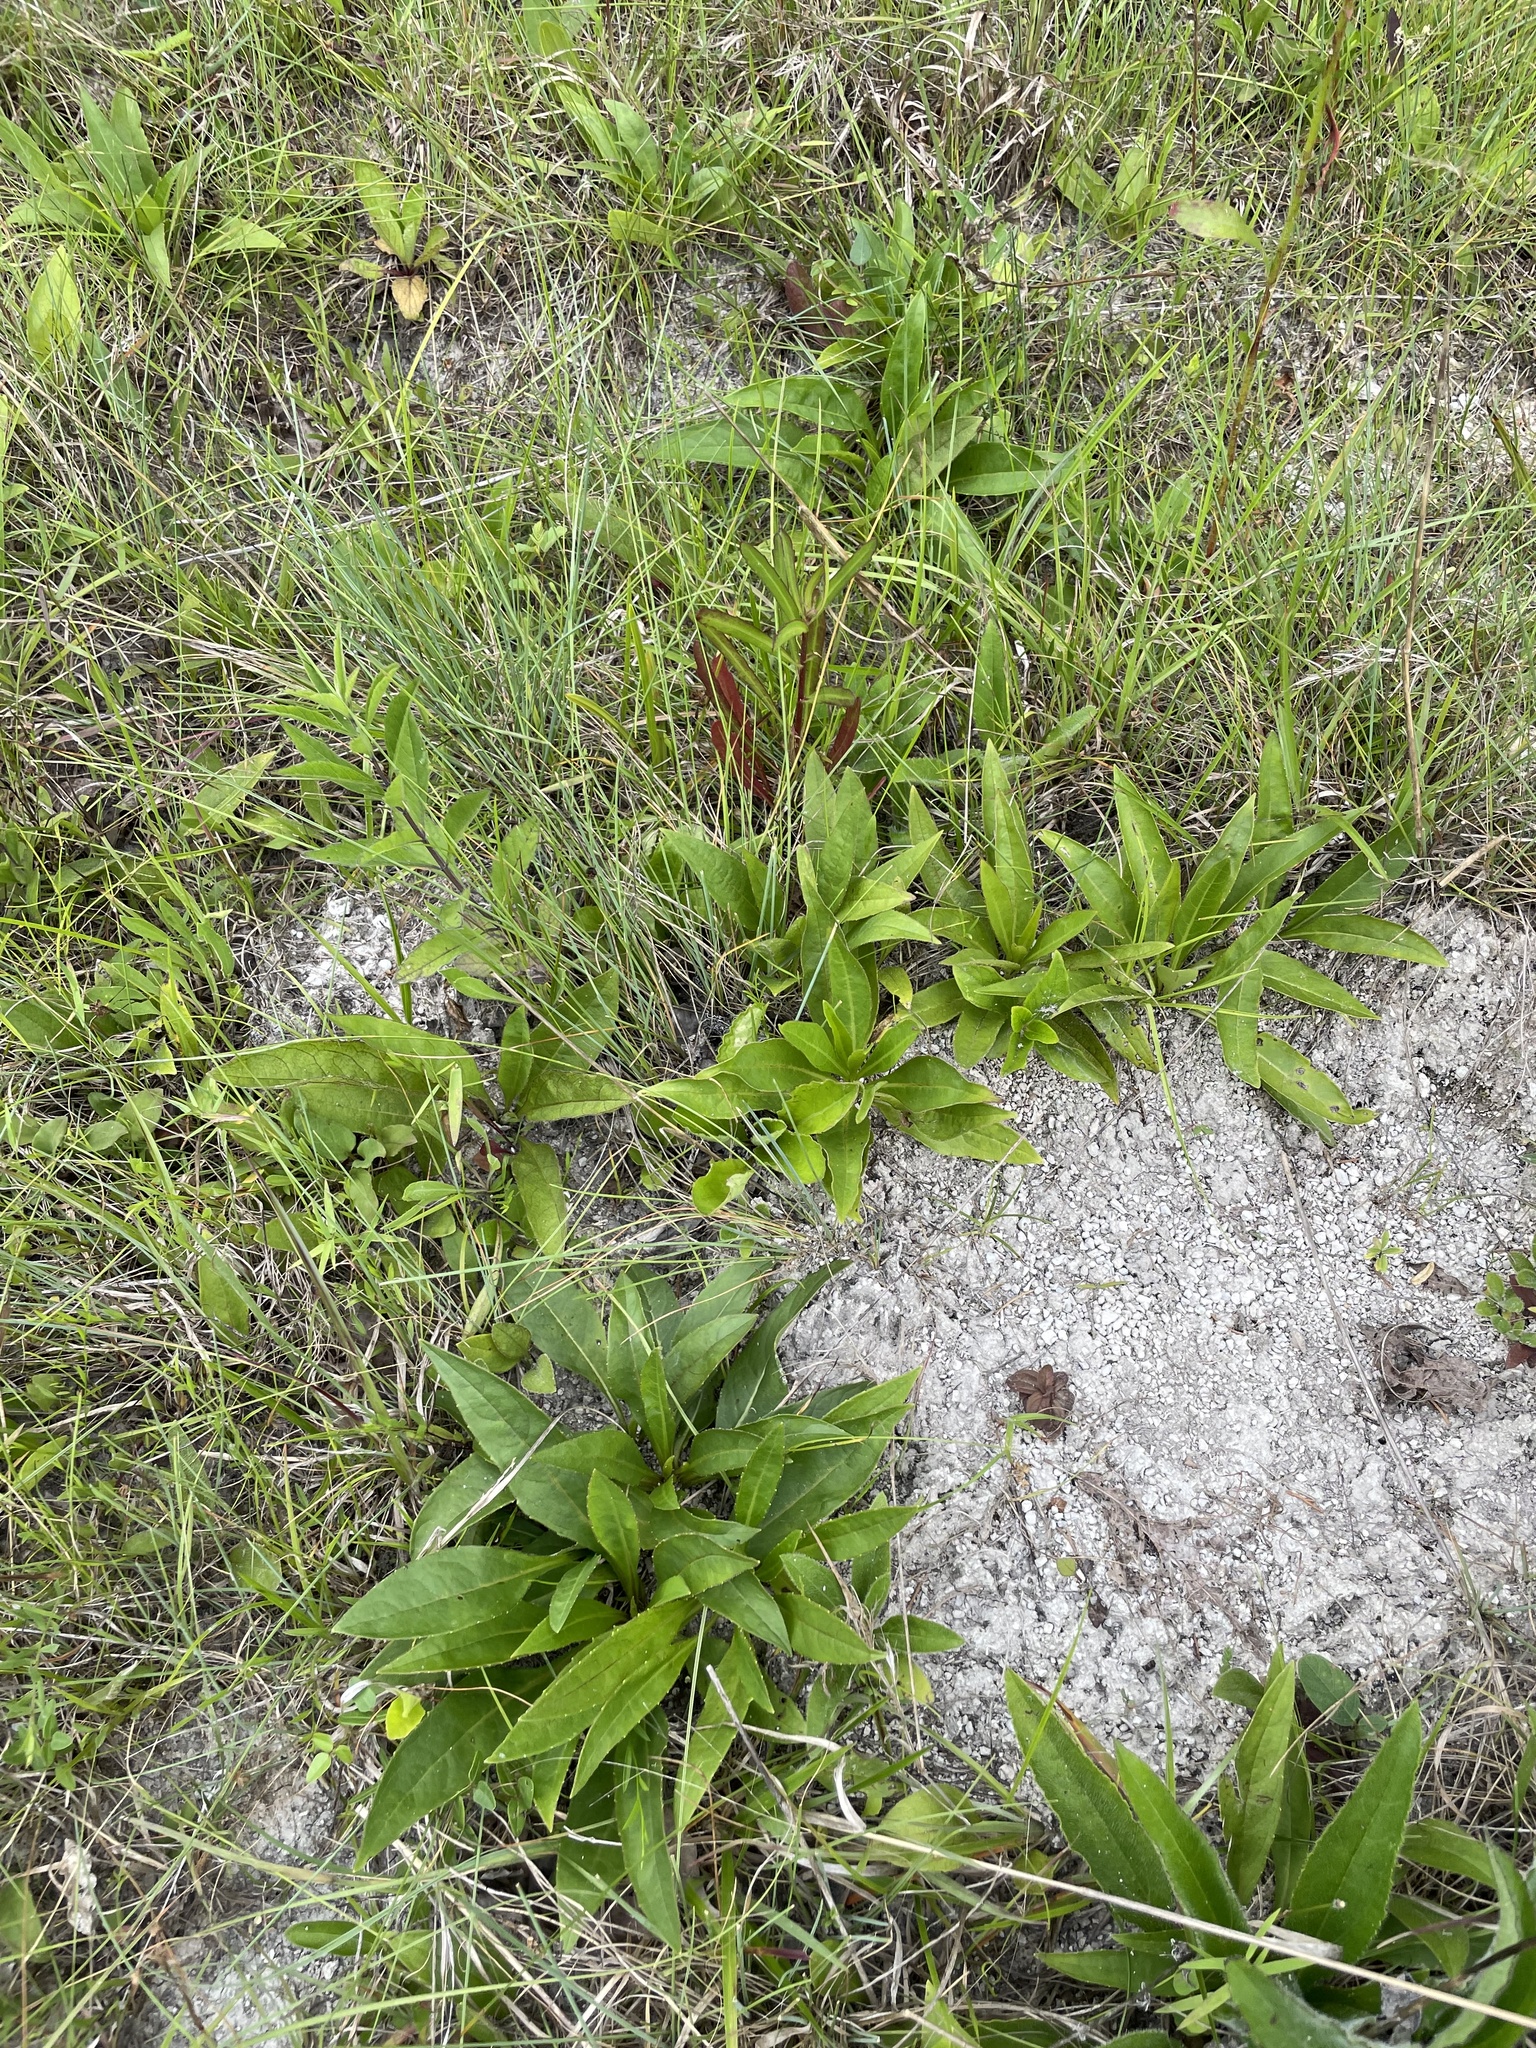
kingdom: Plantae
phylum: Tracheophyta
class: Magnoliopsida
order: Asterales
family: Asteraceae
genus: Silphium
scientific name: Silphium confertifolium
